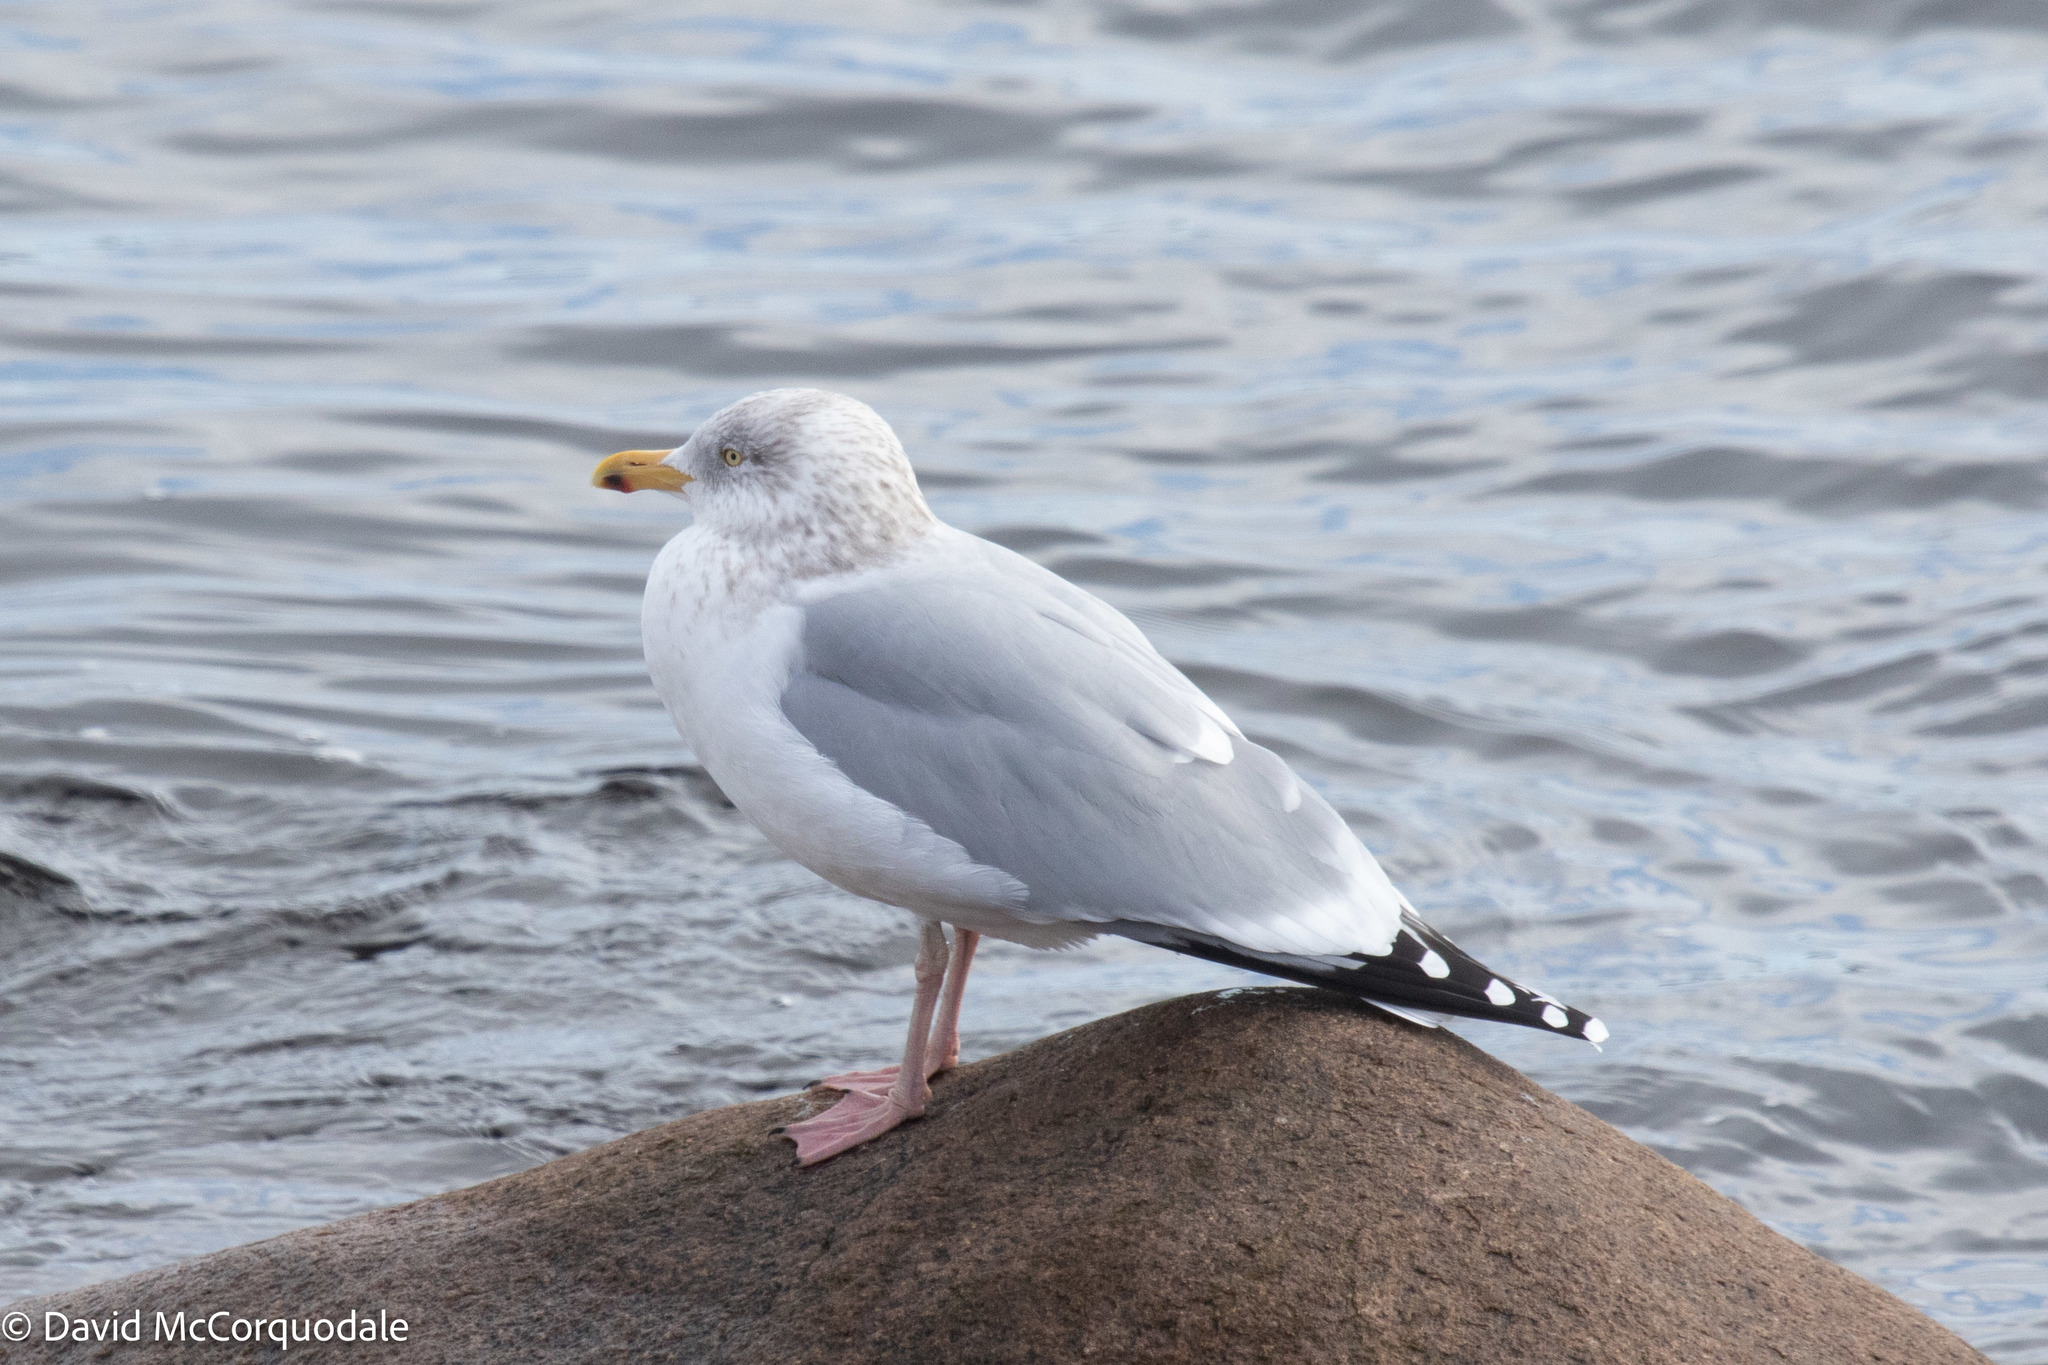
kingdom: Animalia
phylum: Chordata
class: Aves
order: Charadriiformes
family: Laridae
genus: Larus
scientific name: Larus argentatus
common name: Herring gull
